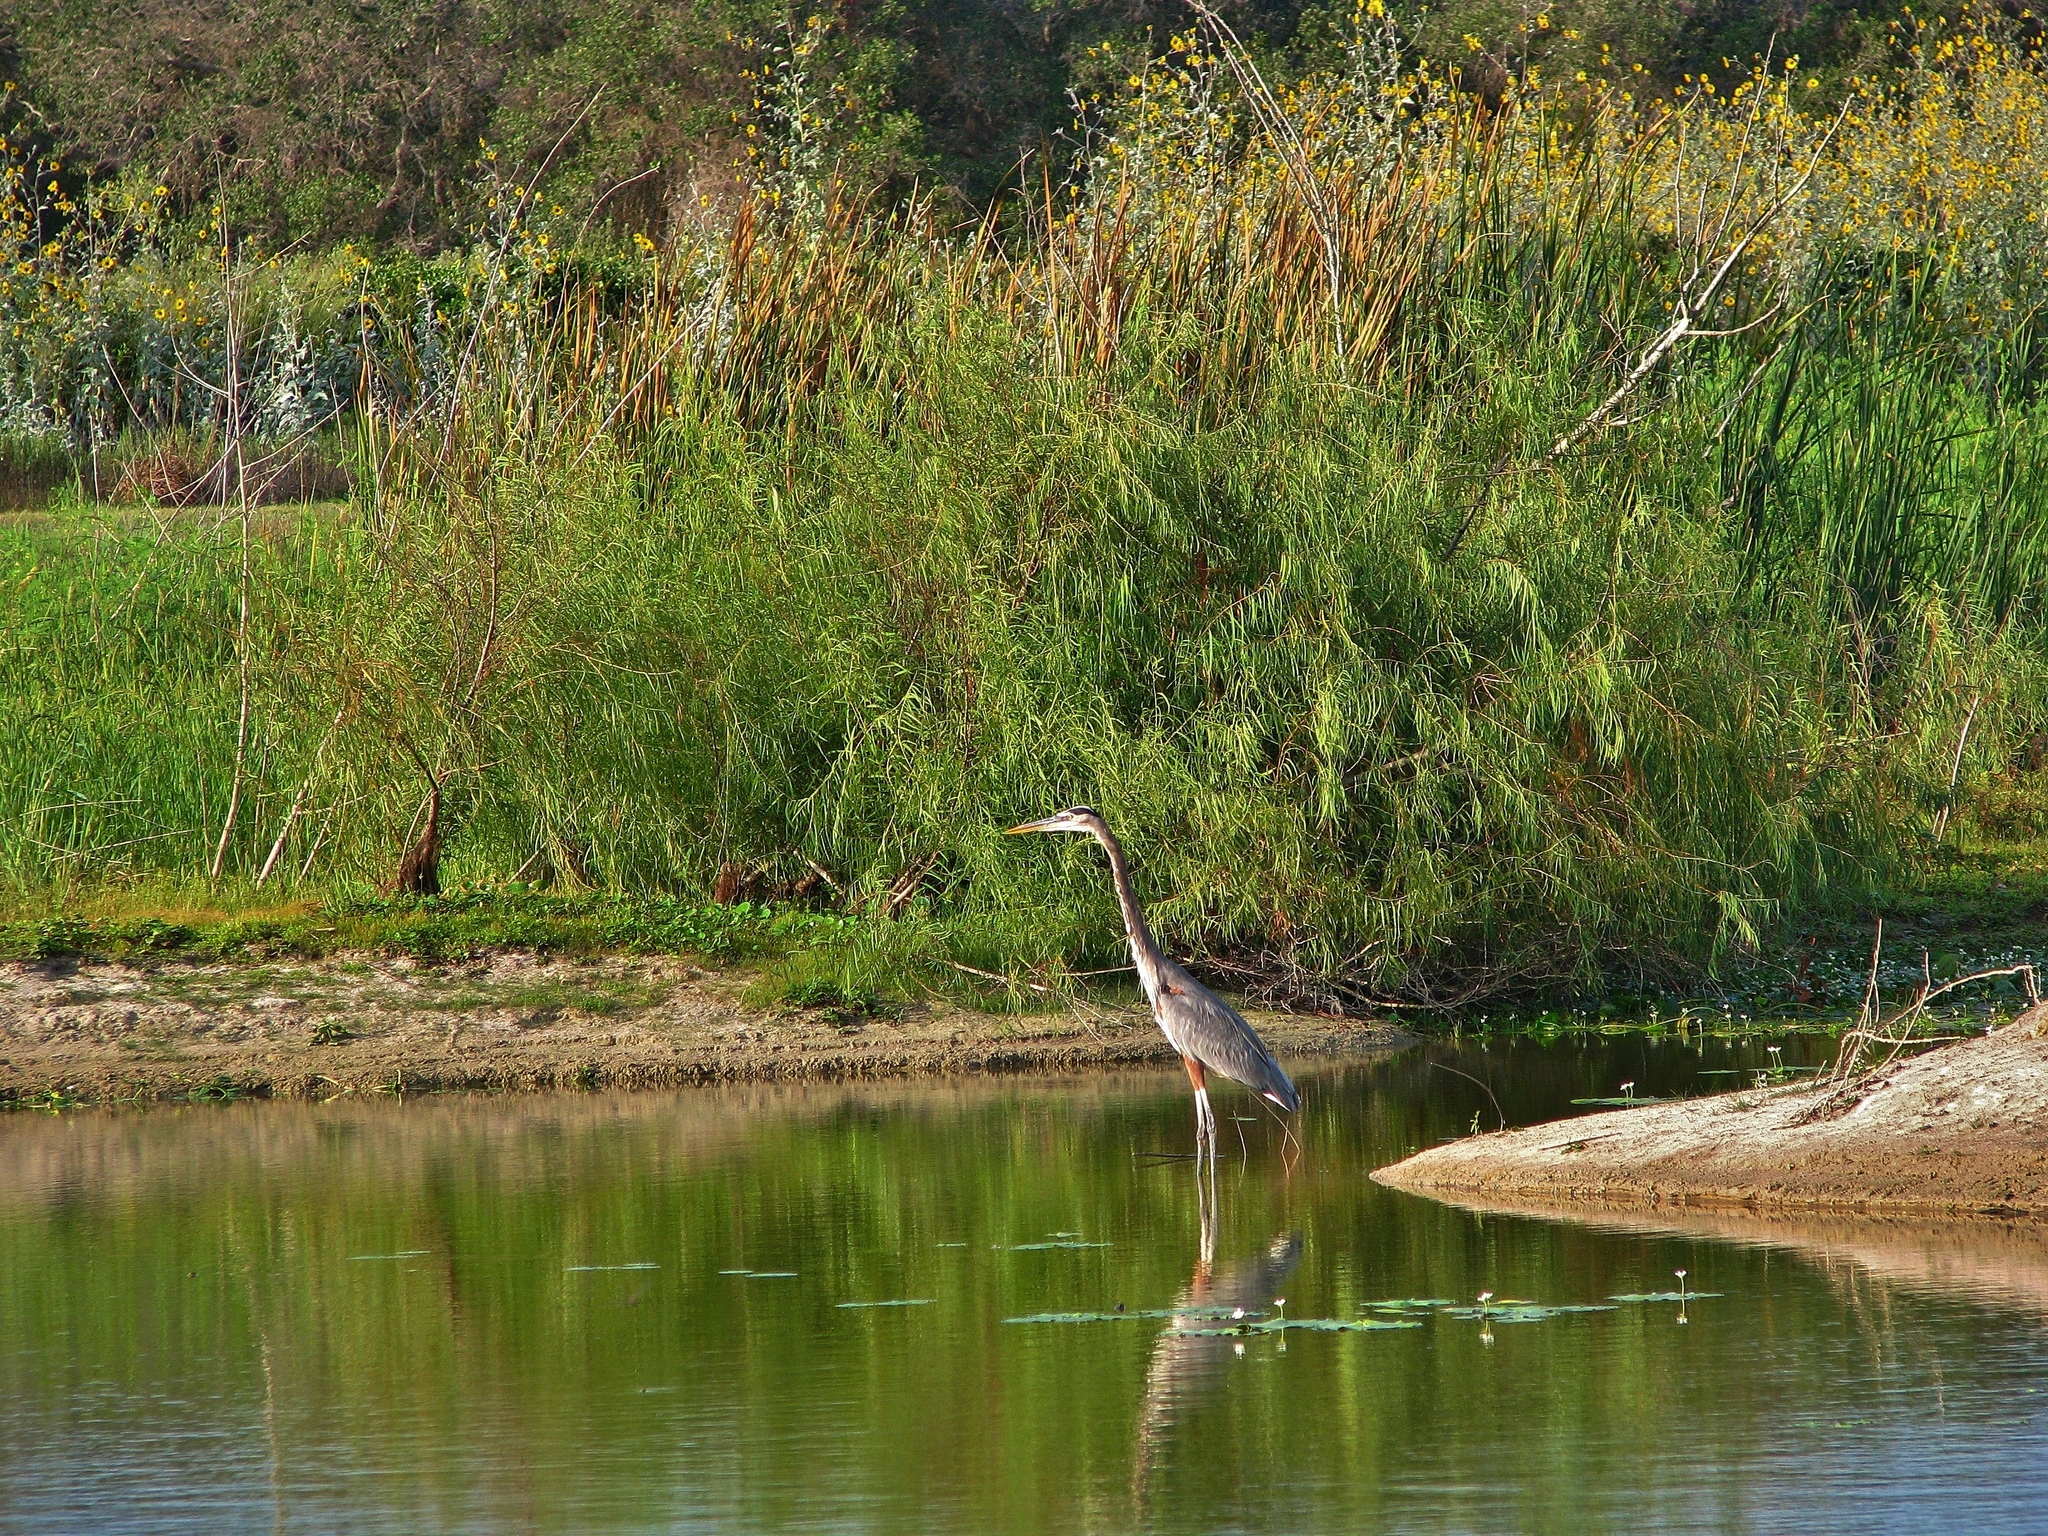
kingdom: Animalia
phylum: Chordata
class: Aves
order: Pelecaniformes
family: Ardeidae
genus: Ardea
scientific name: Ardea herodias
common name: Great blue heron
